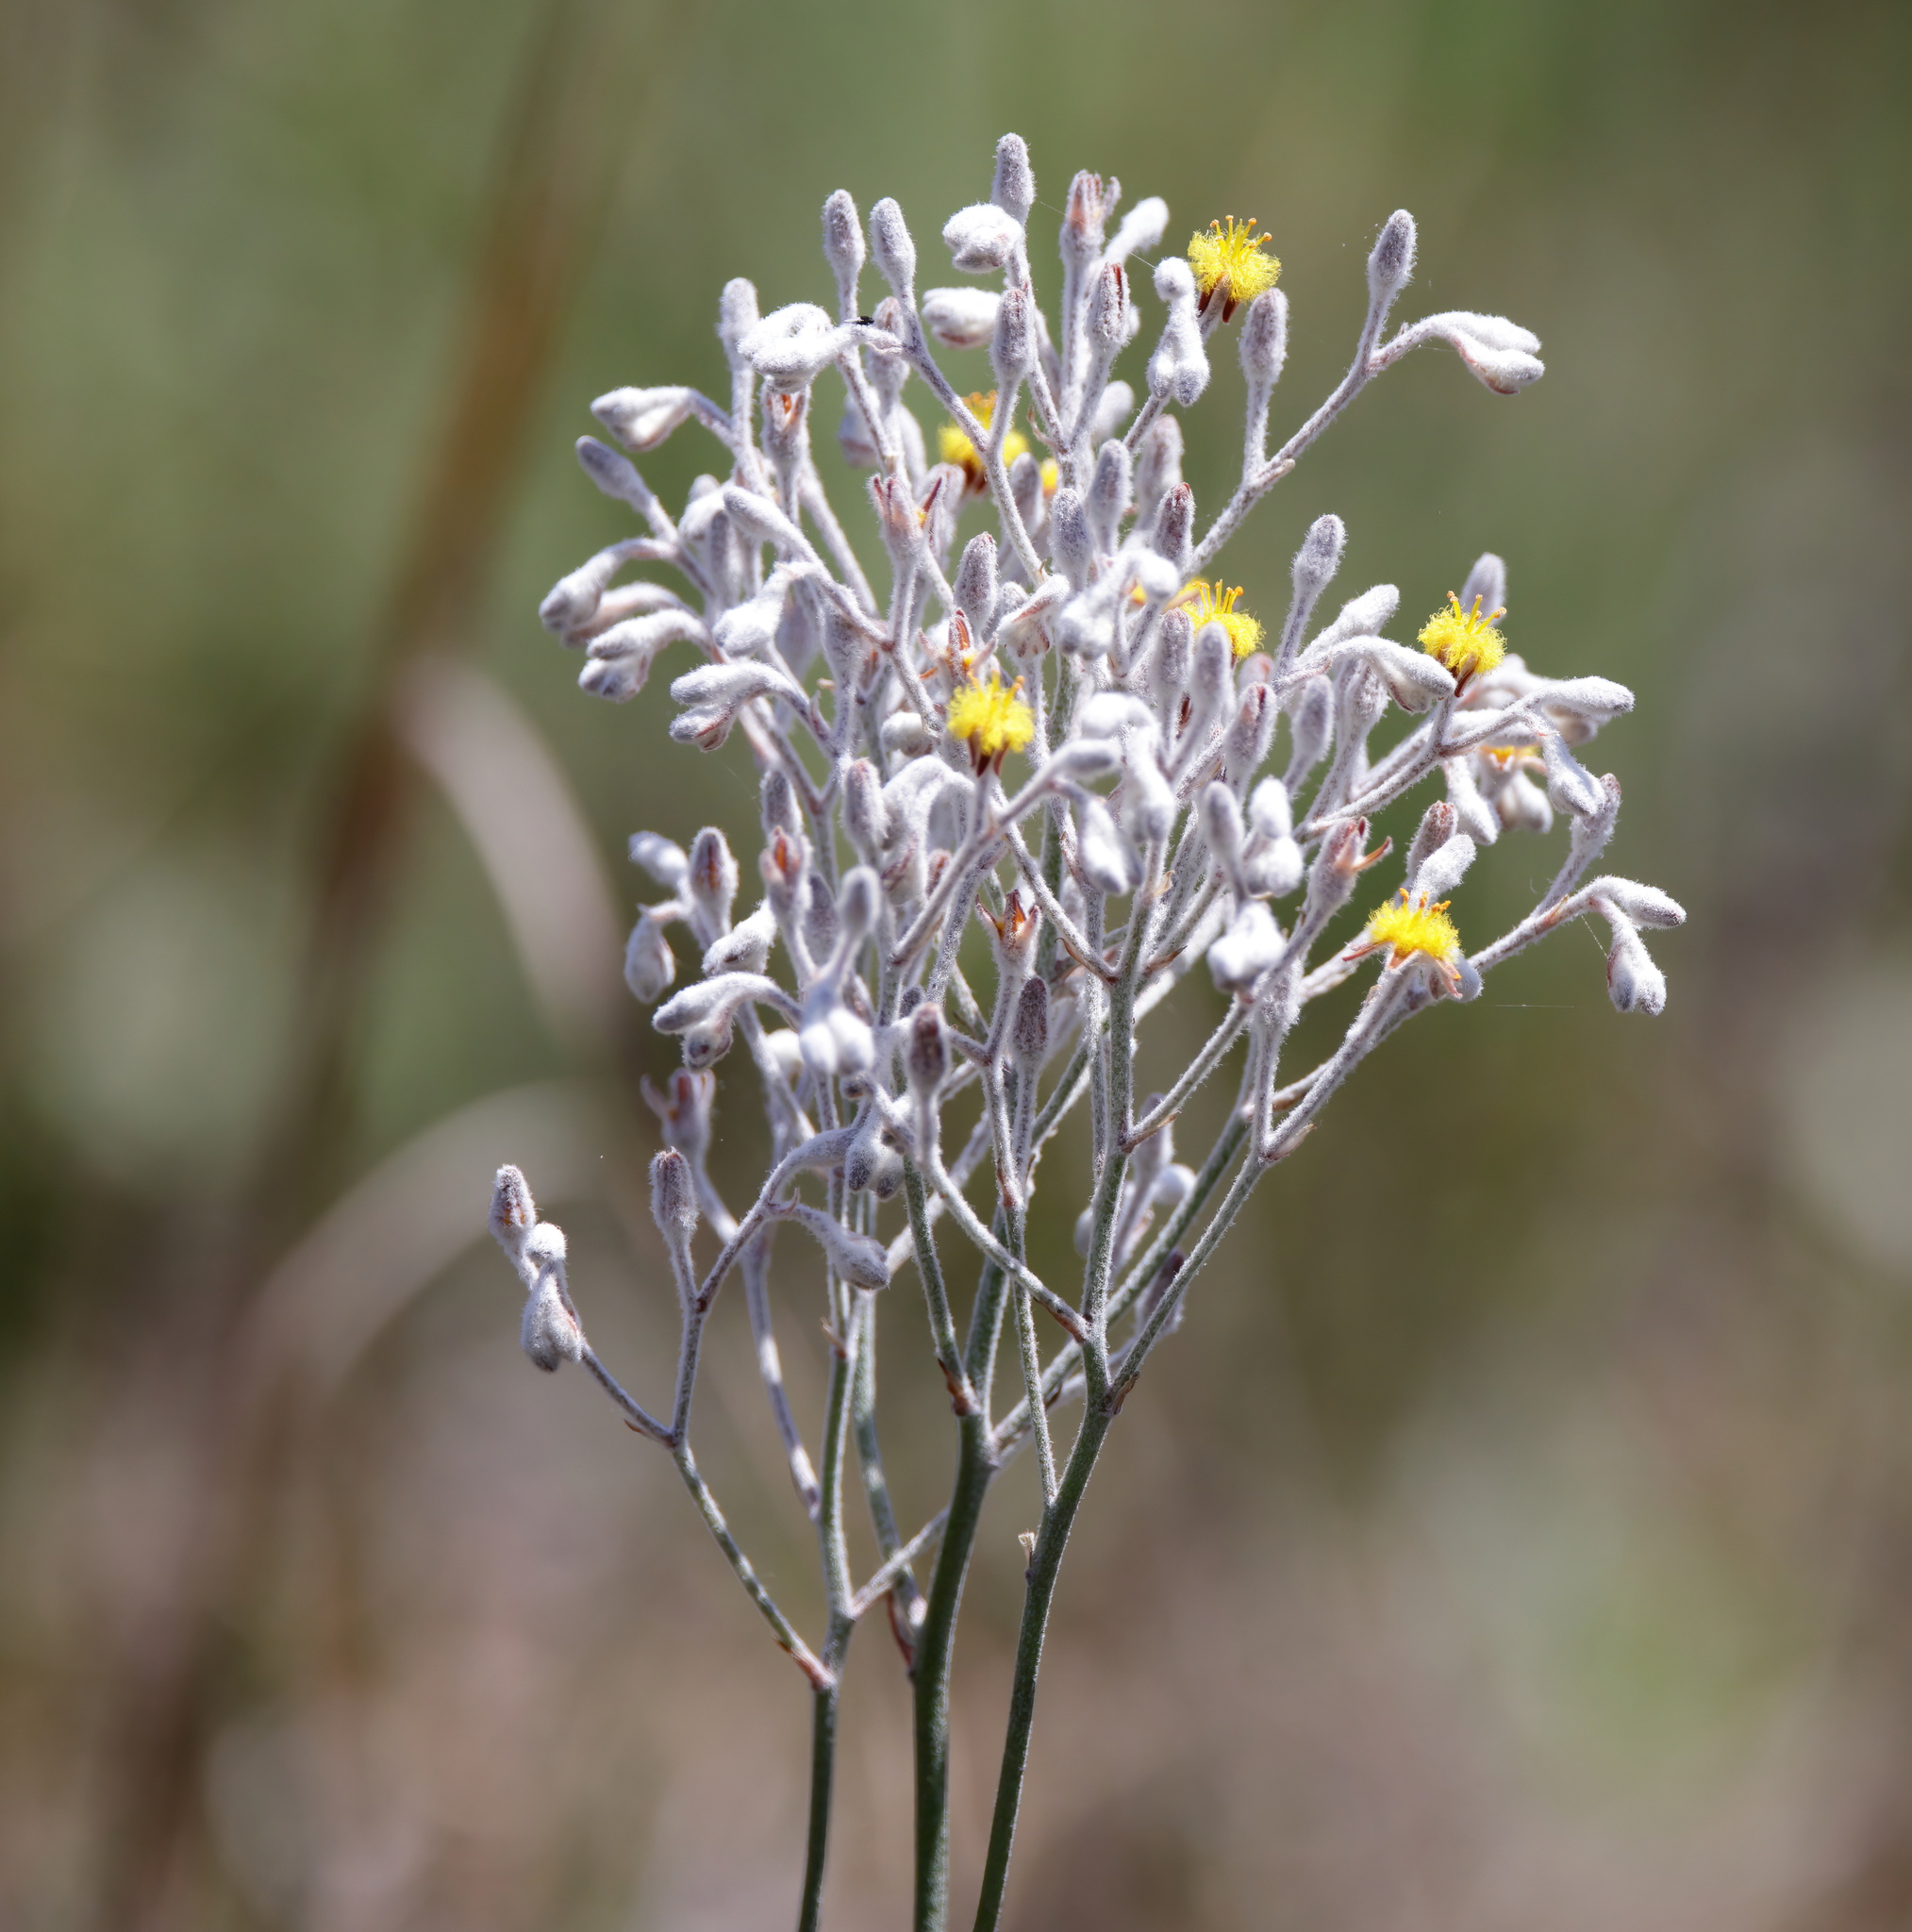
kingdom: Plantae
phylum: Tracheophyta
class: Liliopsida
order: Dioscoreales
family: Nartheciaceae
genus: Lophiola
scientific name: Lophiola aurea
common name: Golden-crest
